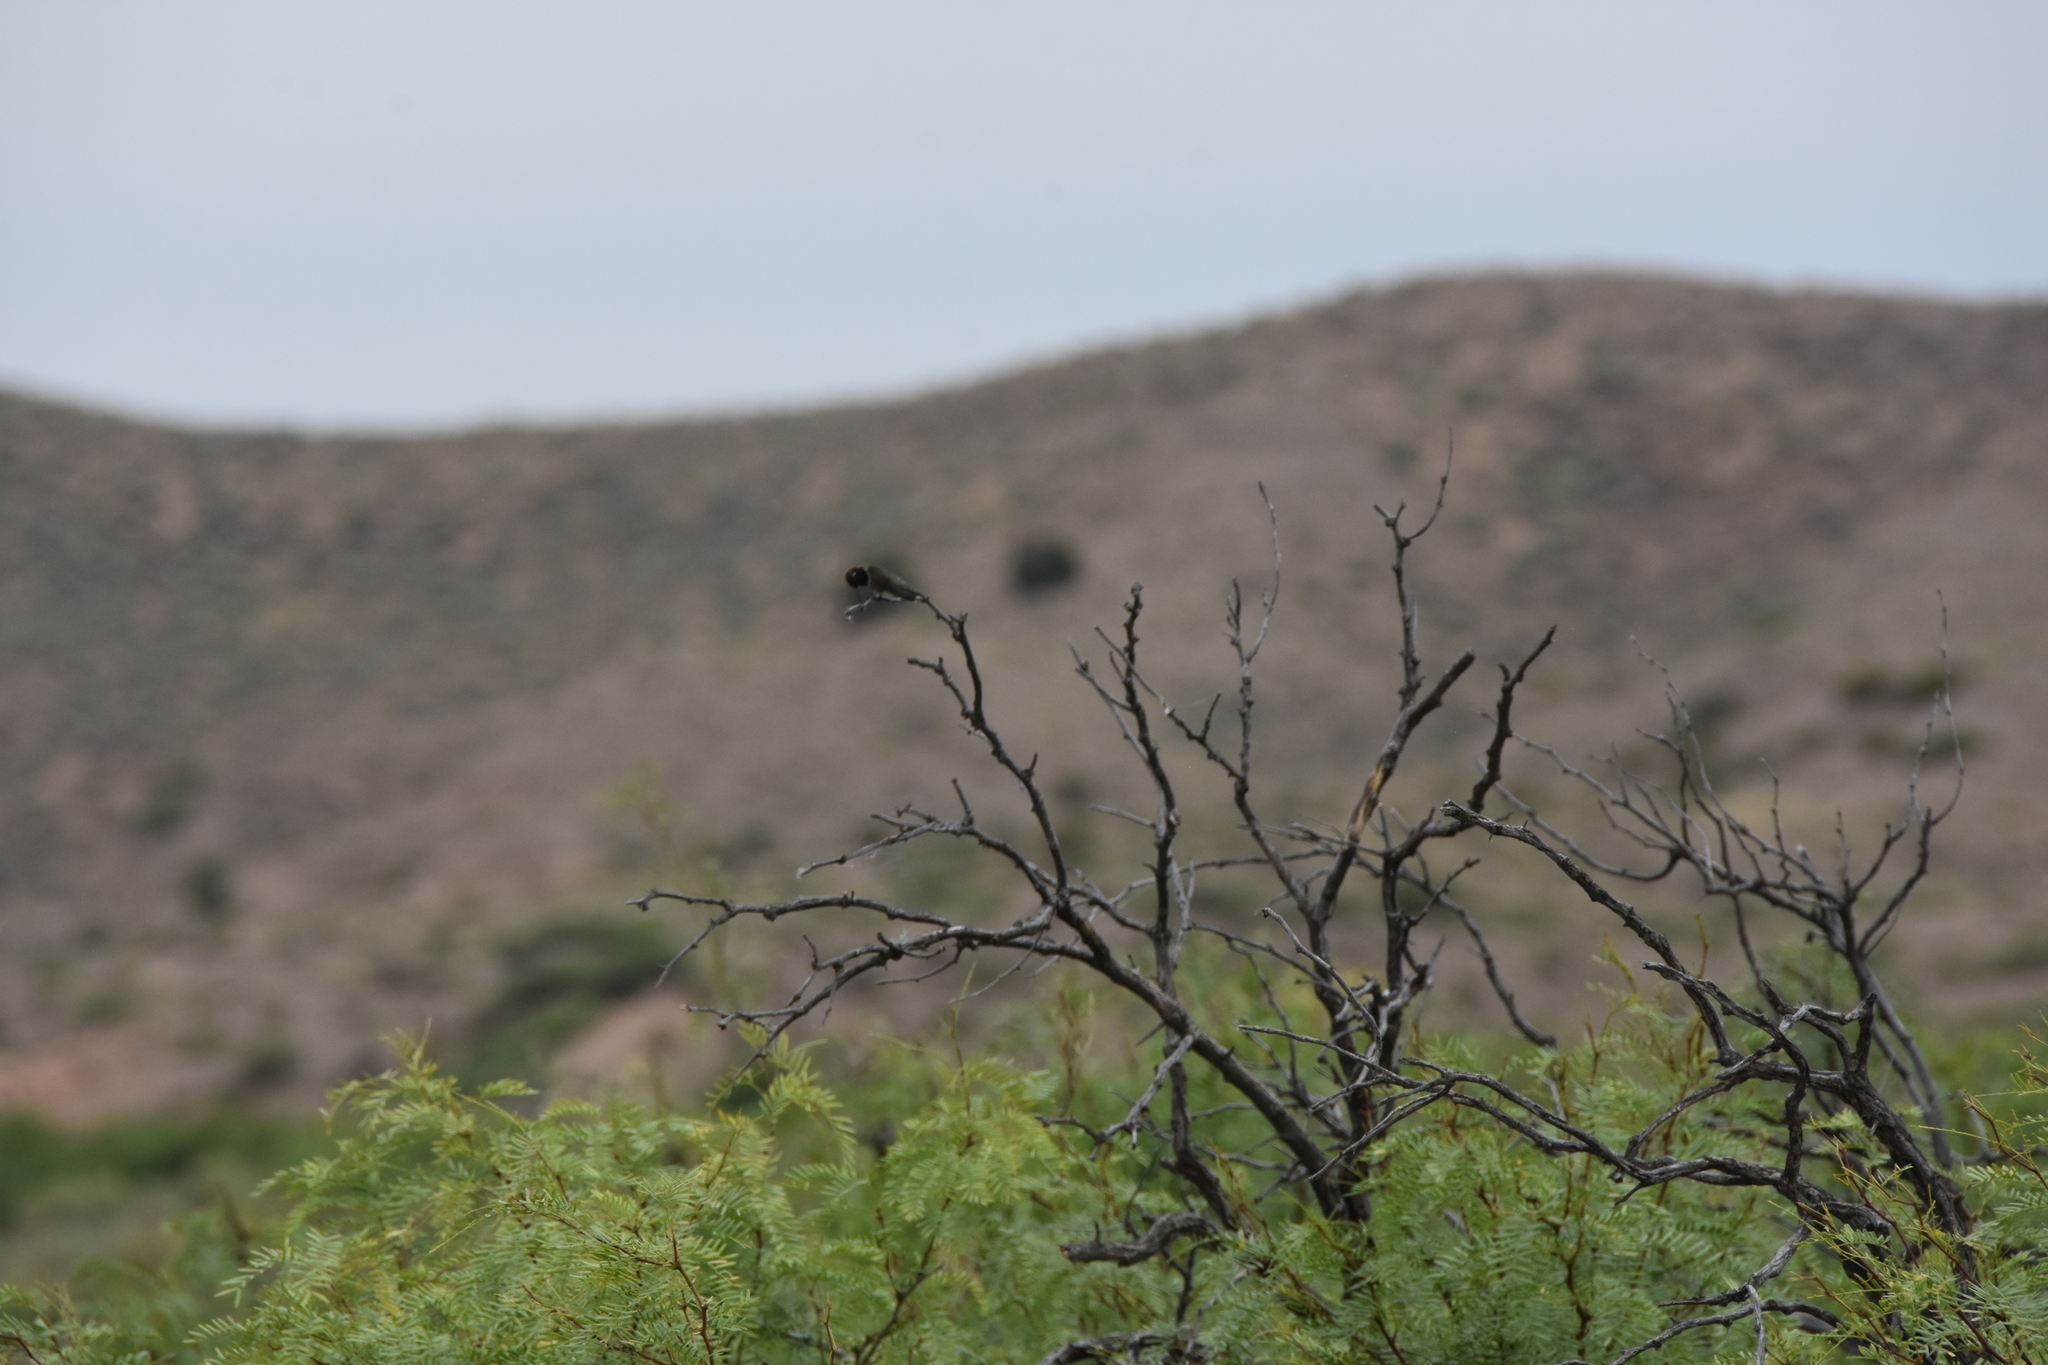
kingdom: Animalia
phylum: Chordata
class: Aves
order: Apodiformes
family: Trochilidae
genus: Archilochus
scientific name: Archilochus alexandri
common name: Black-chinned hummingbird
